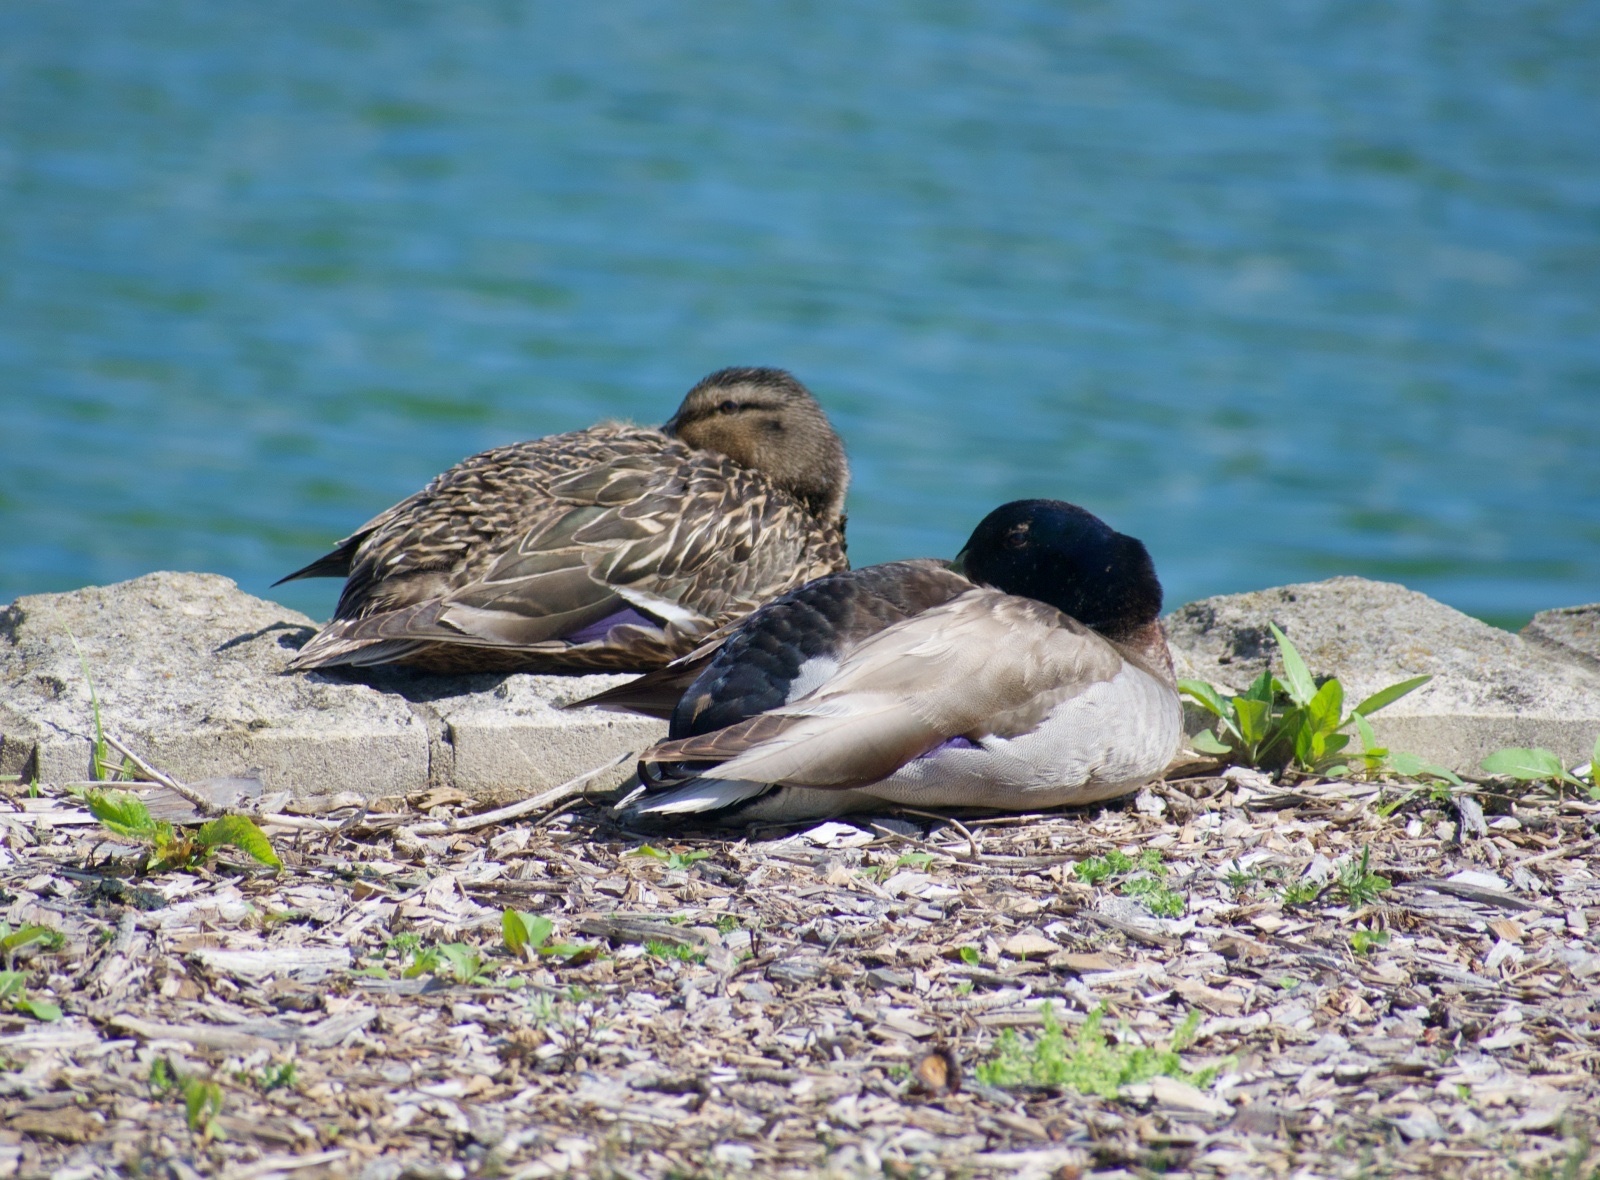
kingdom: Animalia
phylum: Chordata
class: Aves
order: Anseriformes
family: Anatidae
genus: Anas
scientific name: Anas platyrhynchos
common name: Mallard
